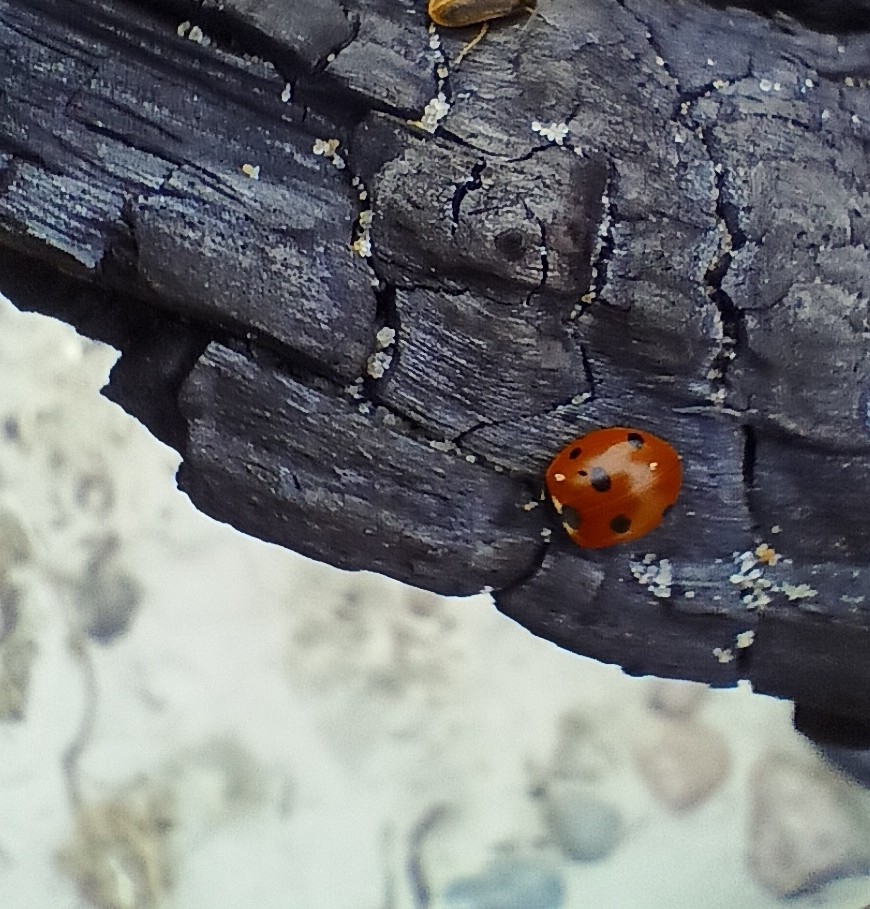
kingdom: Animalia
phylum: Arthropoda
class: Insecta
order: Coleoptera
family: Coccinellidae
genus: Coccinella
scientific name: Coccinella septempunctata
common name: Sevenspotted lady beetle
